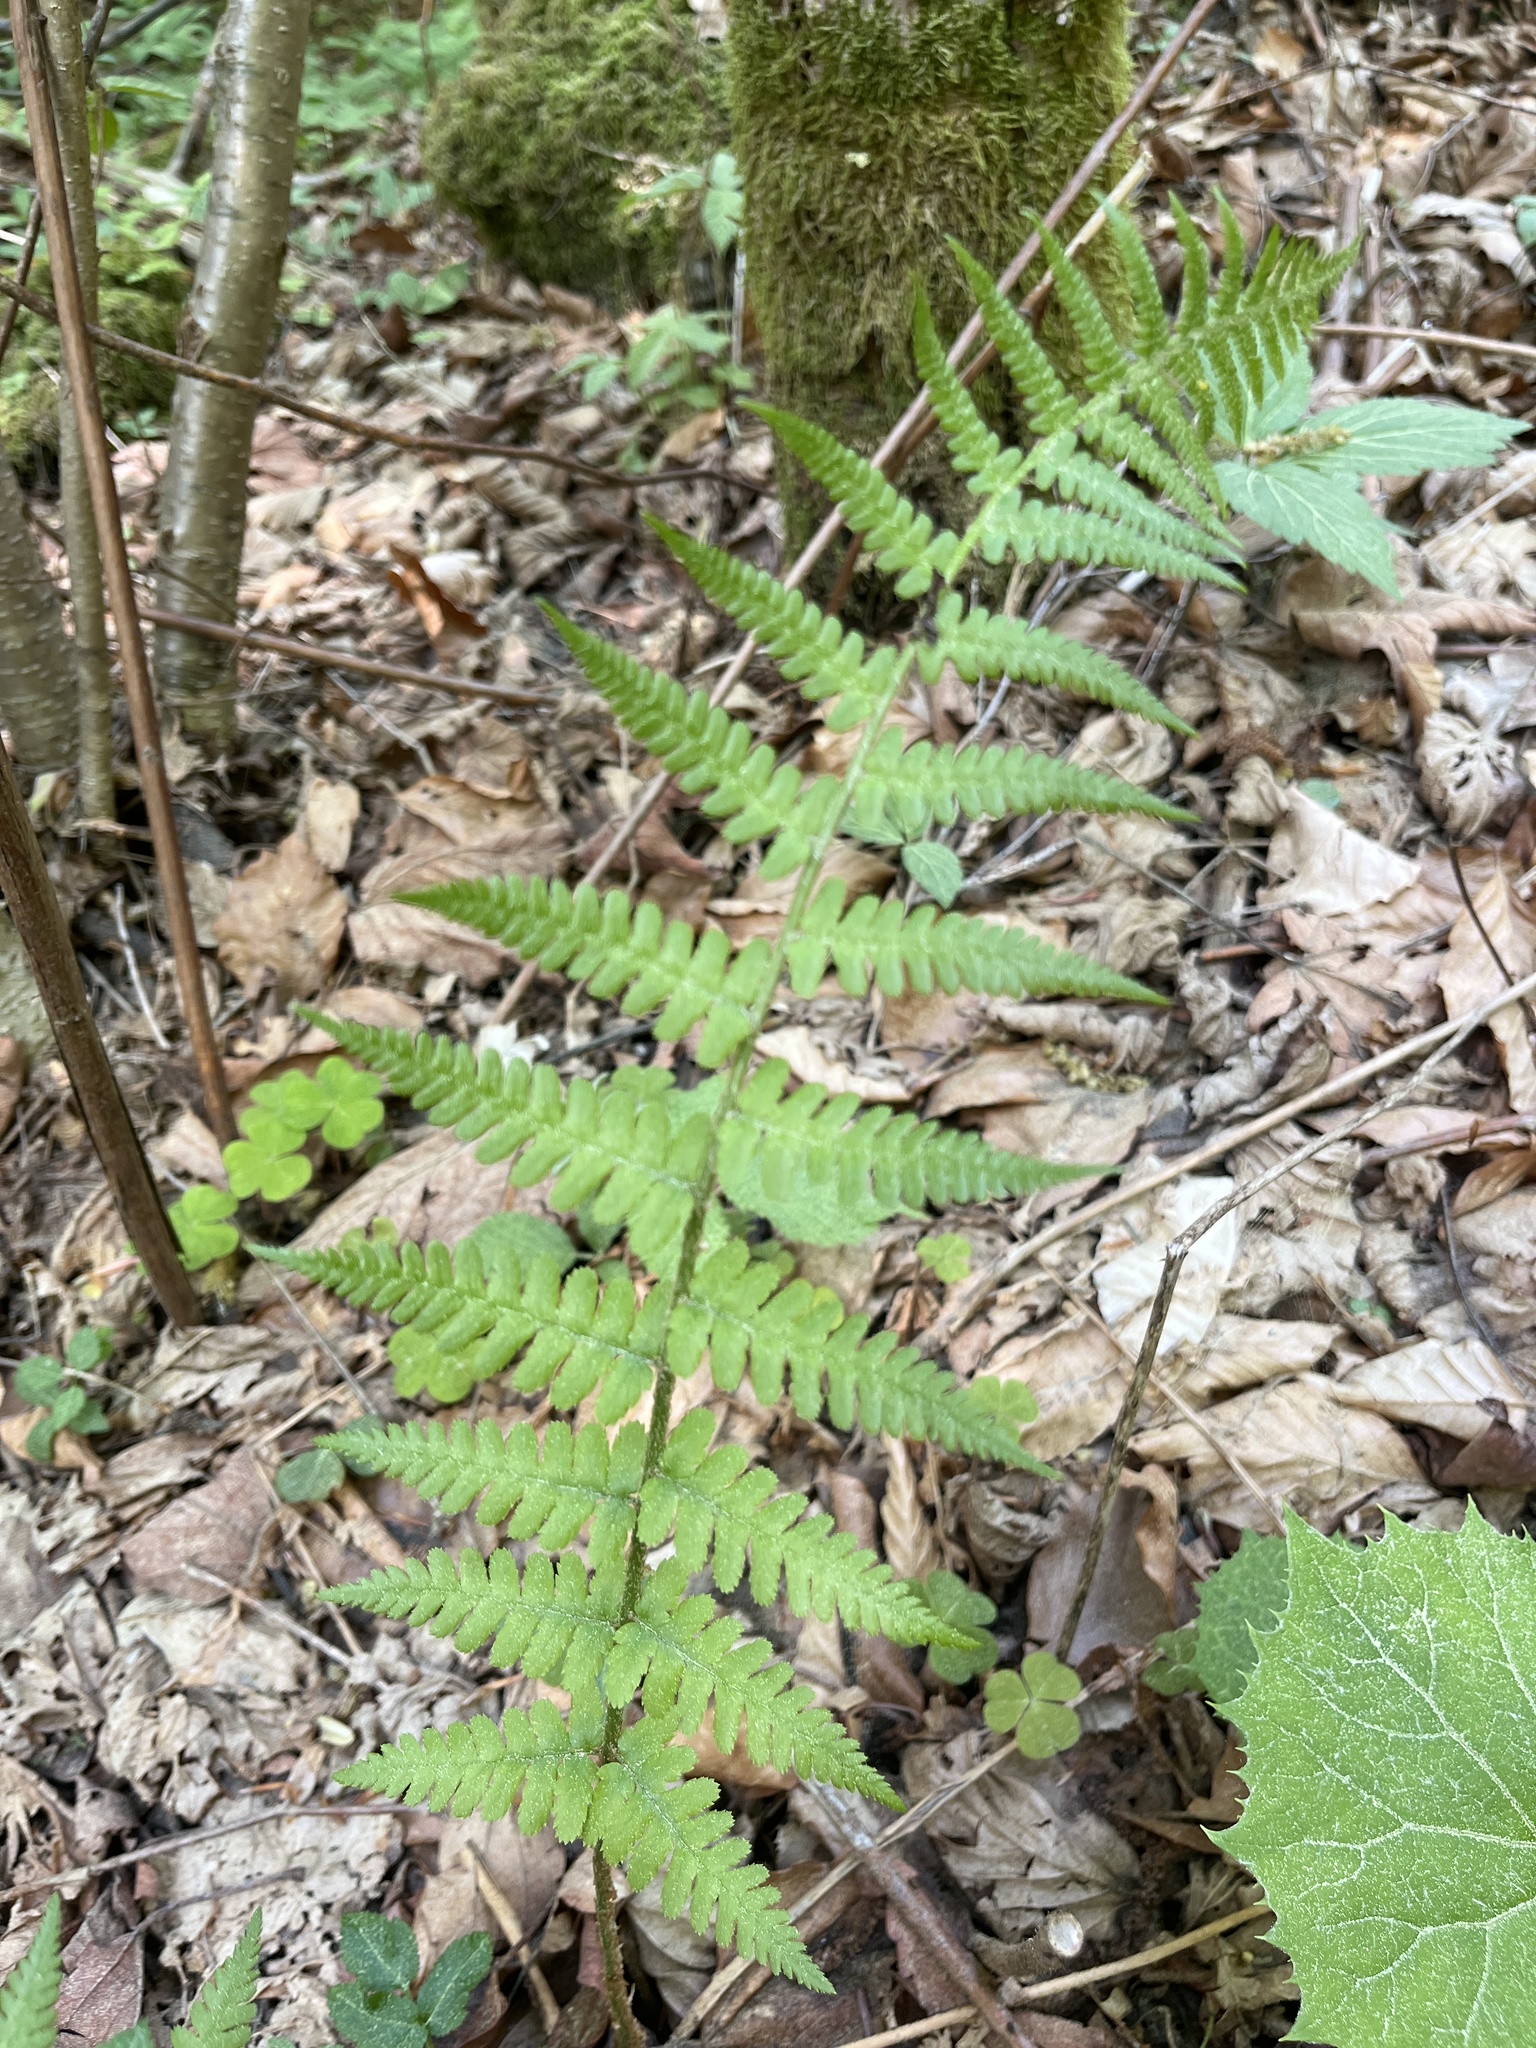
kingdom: Plantae
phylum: Tracheophyta
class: Polypodiopsida
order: Polypodiales
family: Dryopteridaceae
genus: Dryopteris
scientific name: Dryopteris filix-mas
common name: Male fern
